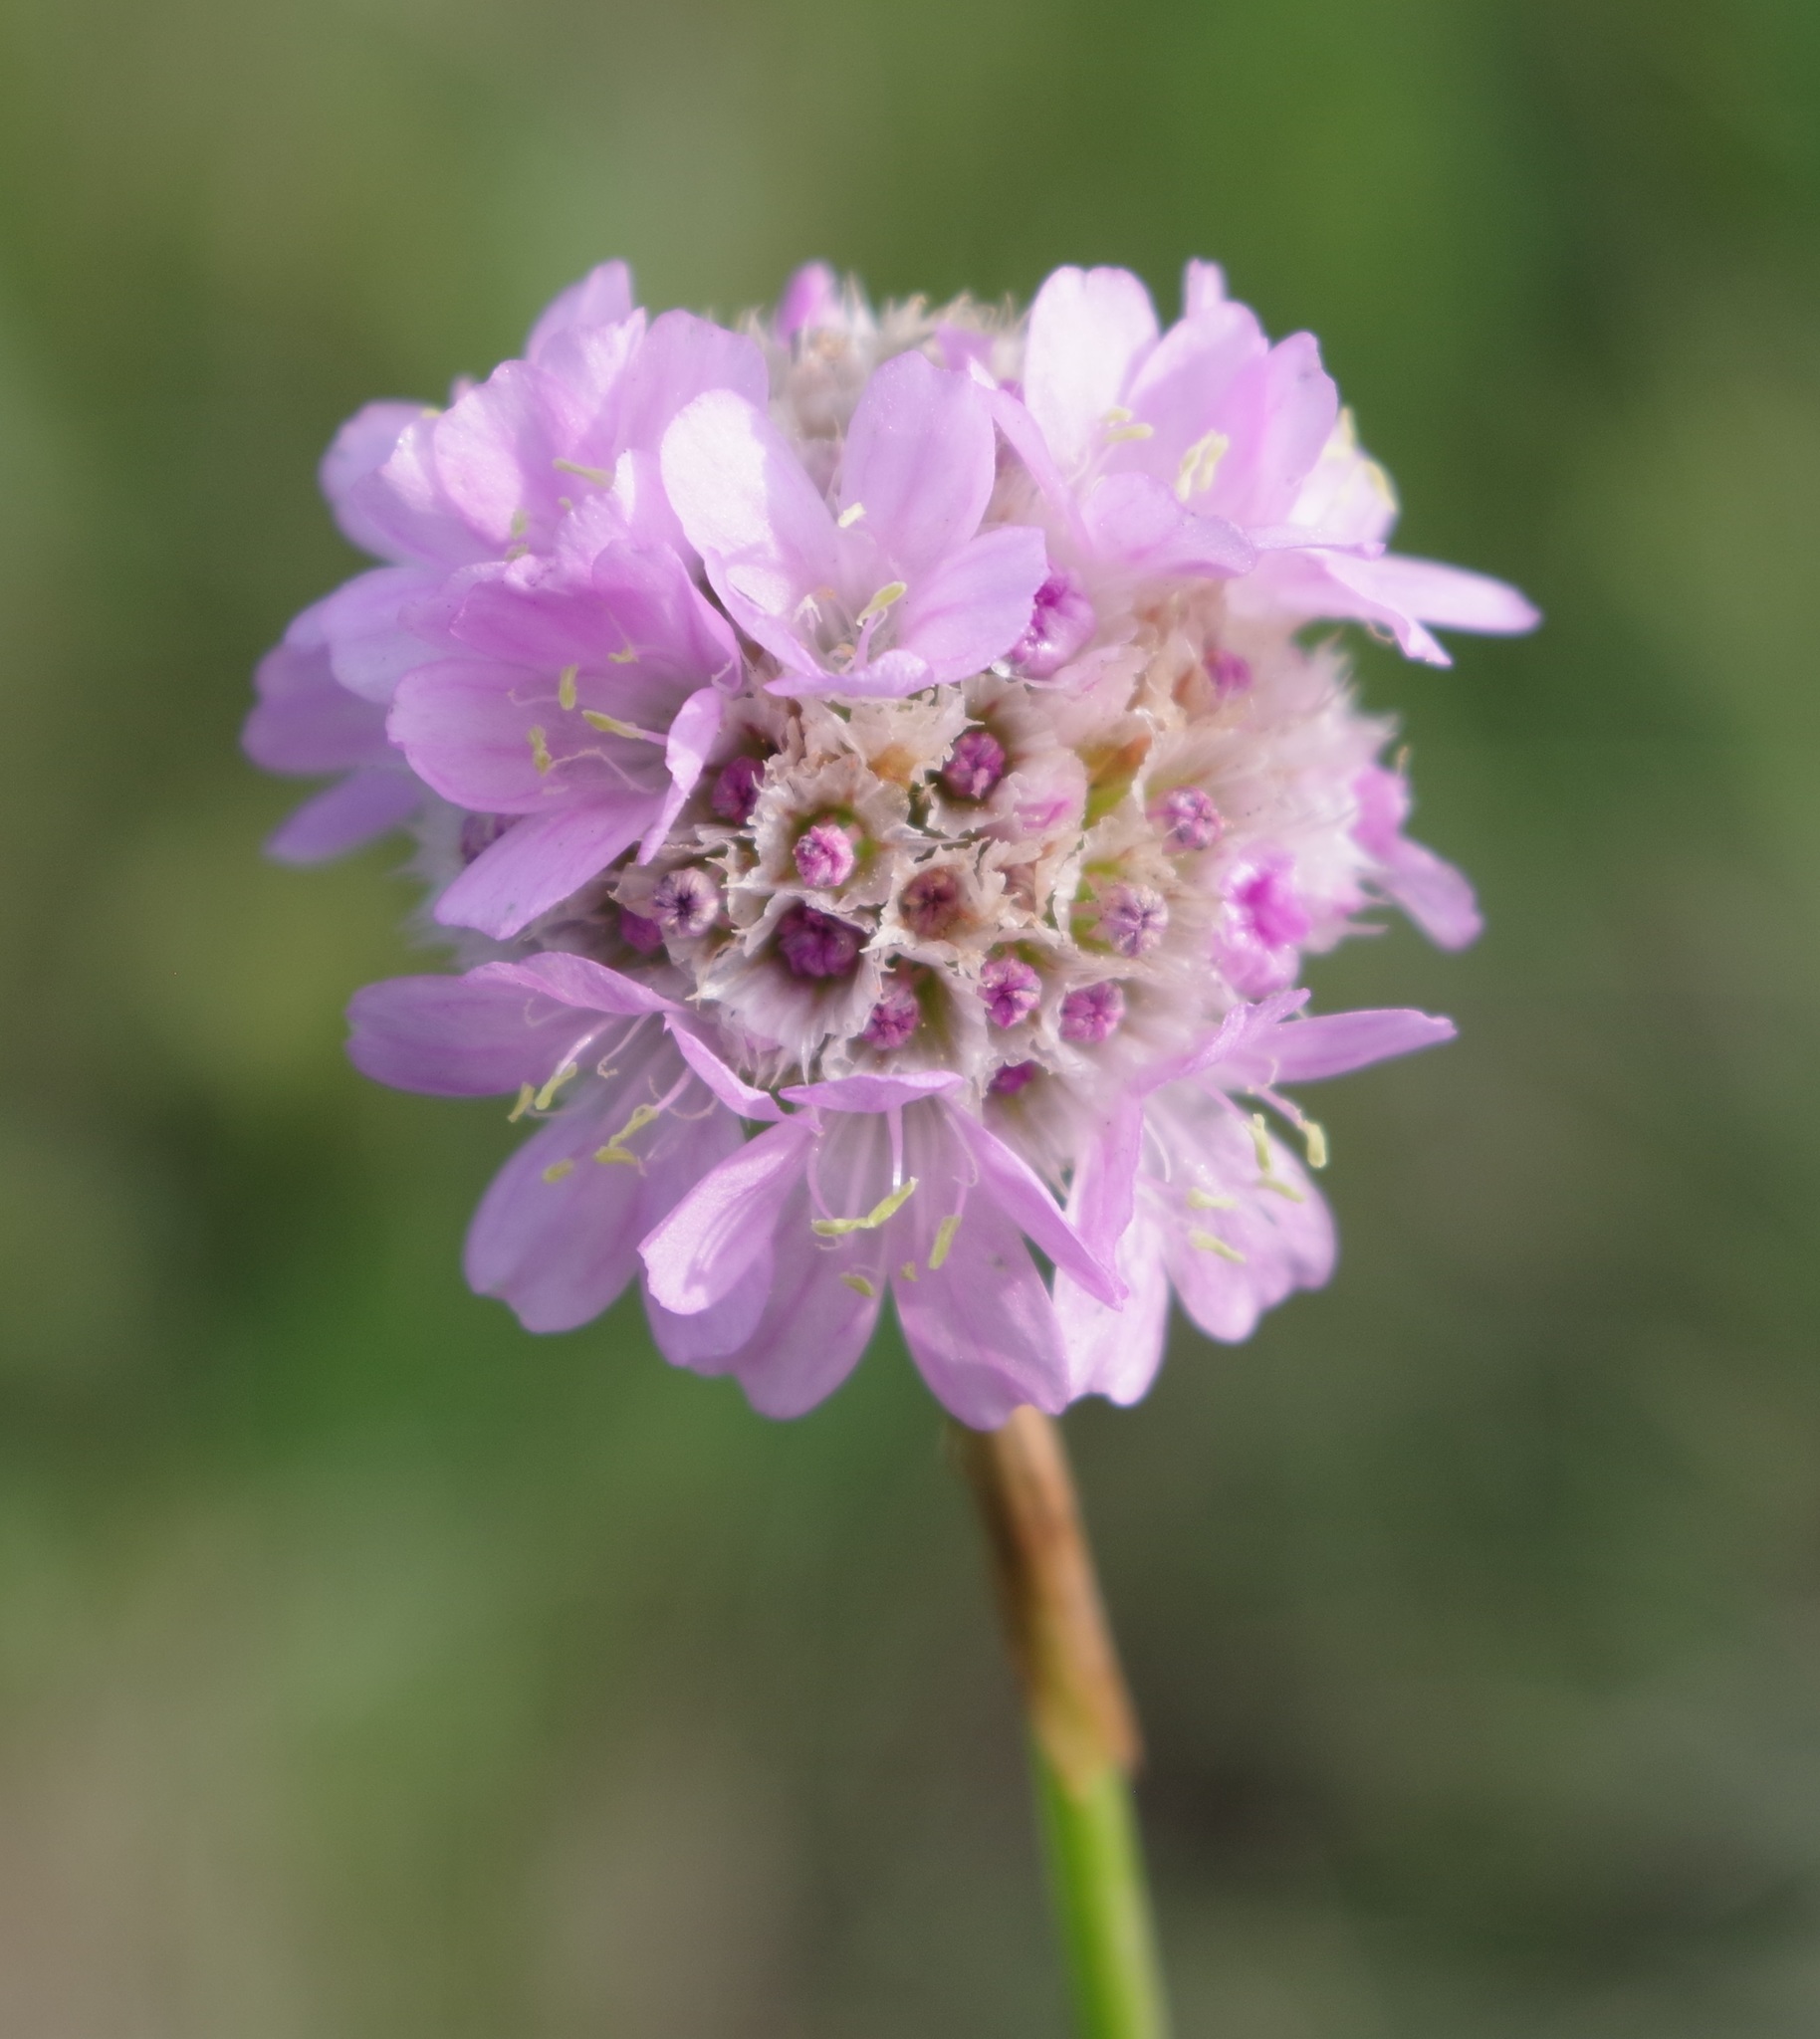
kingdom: Plantae
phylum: Tracheophyta
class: Magnoliopsida
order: Caryophyllales
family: Plumbaginaceae
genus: Armeria
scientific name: Armeria maritima
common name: Thrift
